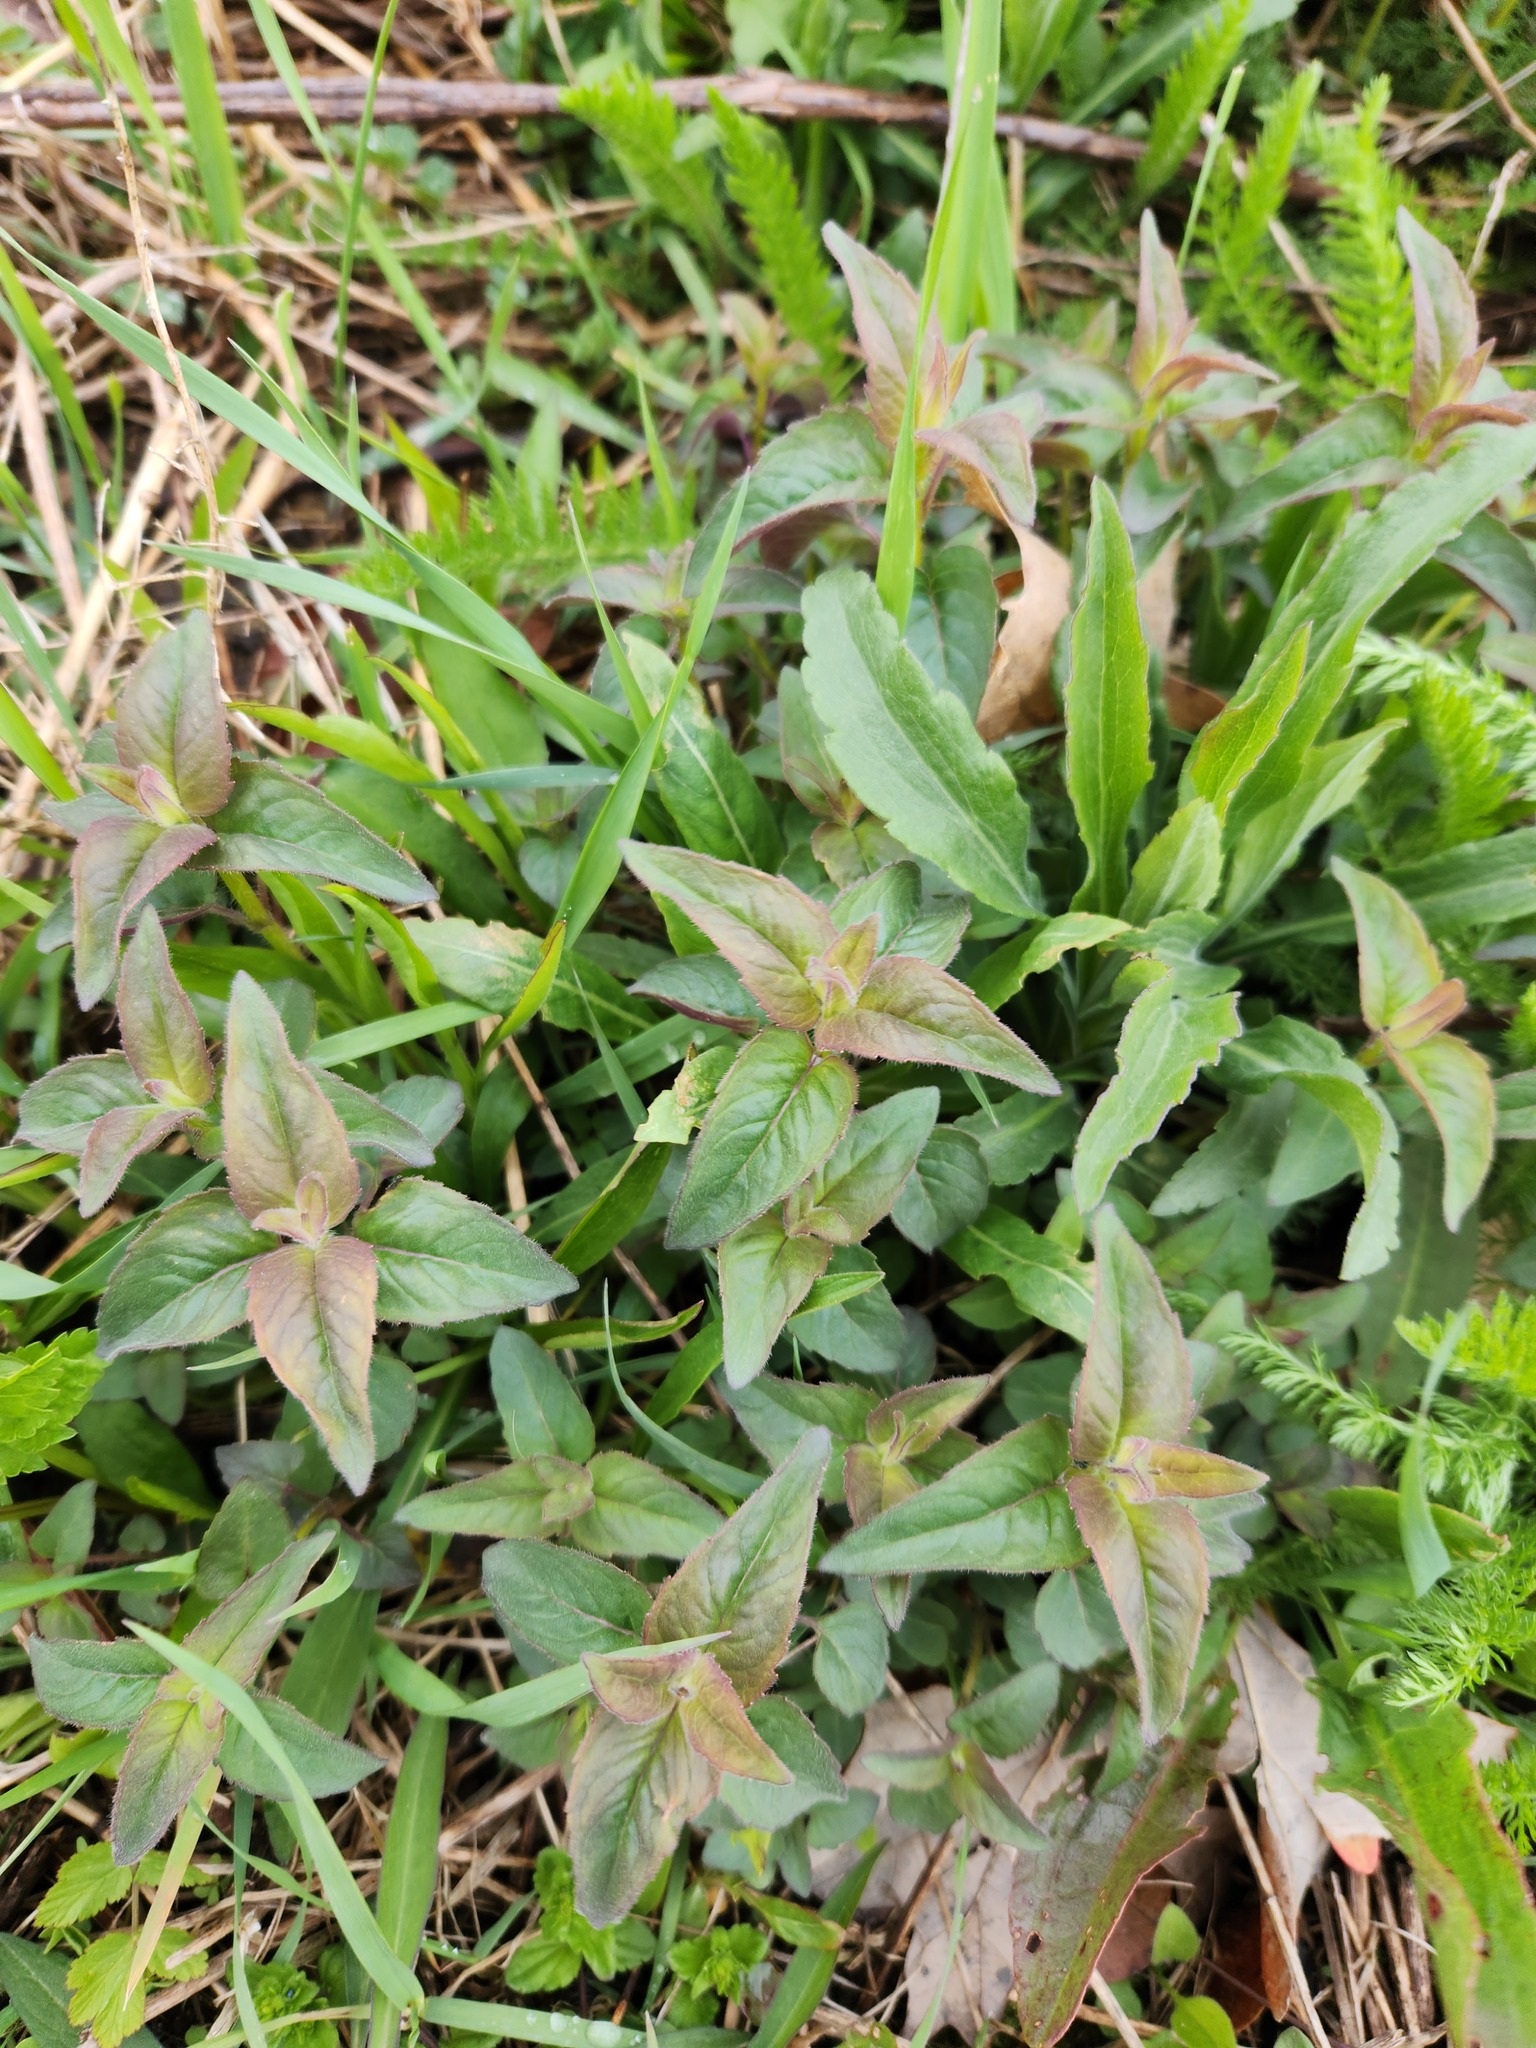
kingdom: Plantae
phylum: Tracheophyta
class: Magnoliopsida
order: Lamiales
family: Lamiaceae
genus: Monarda
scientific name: Monarda fistulosa
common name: Purple beebalm
